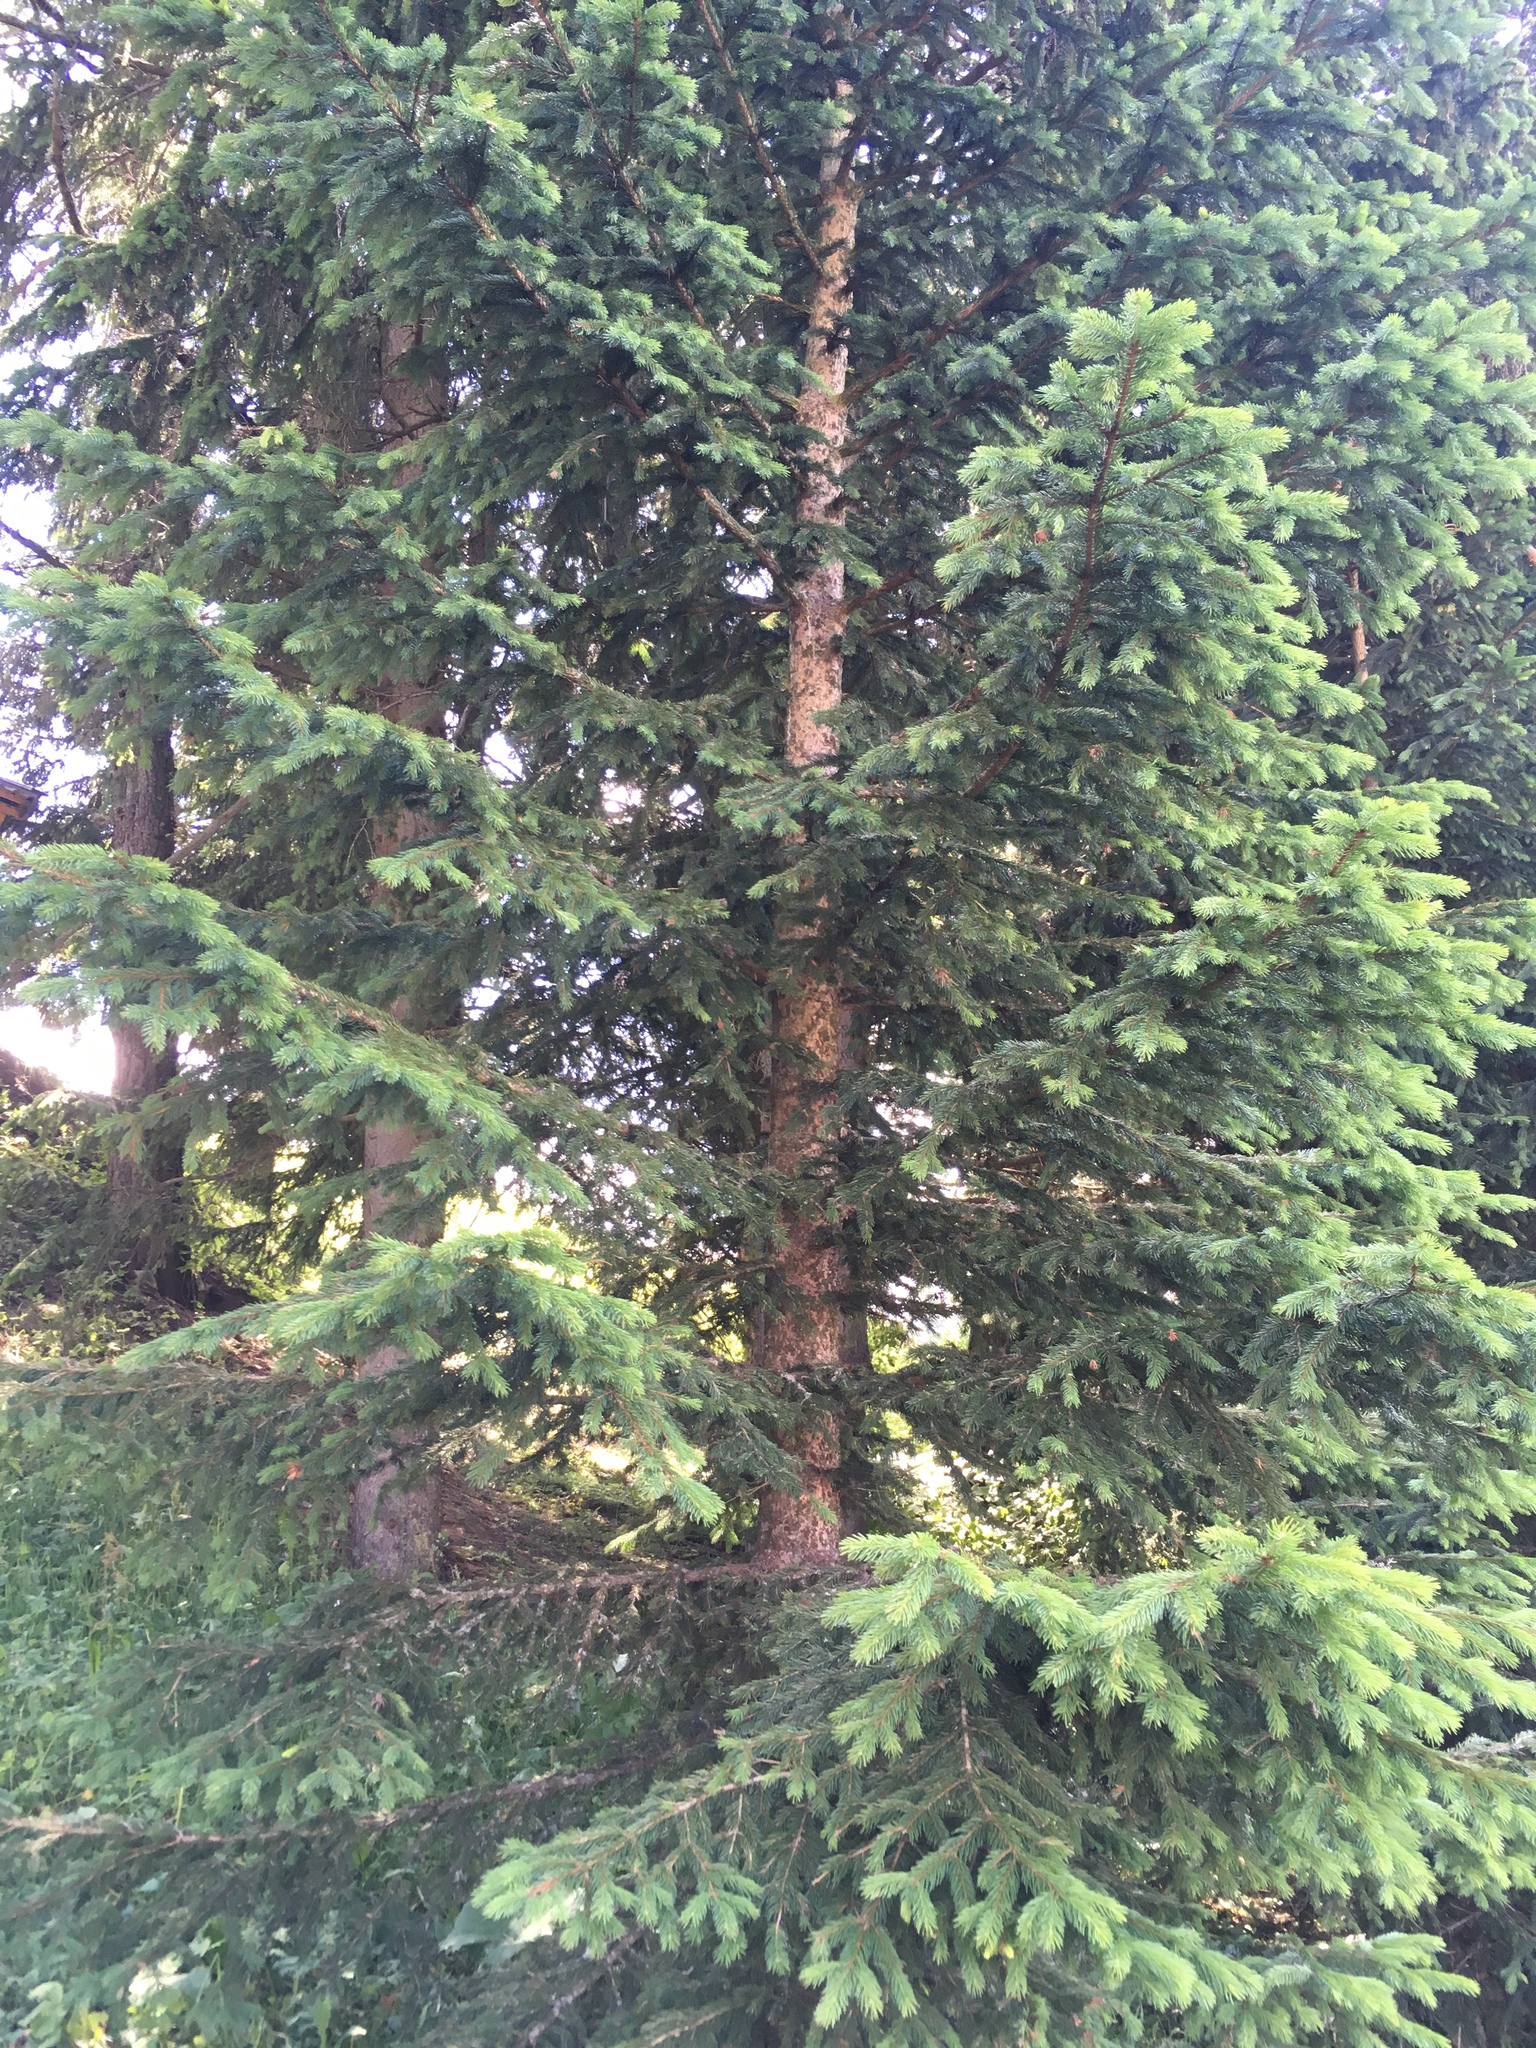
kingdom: Plantae
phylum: Tracheophyta
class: Pinopsida
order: Pinales
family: Pinaceae
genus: Picea
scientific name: Picea abies
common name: Norway spruce
